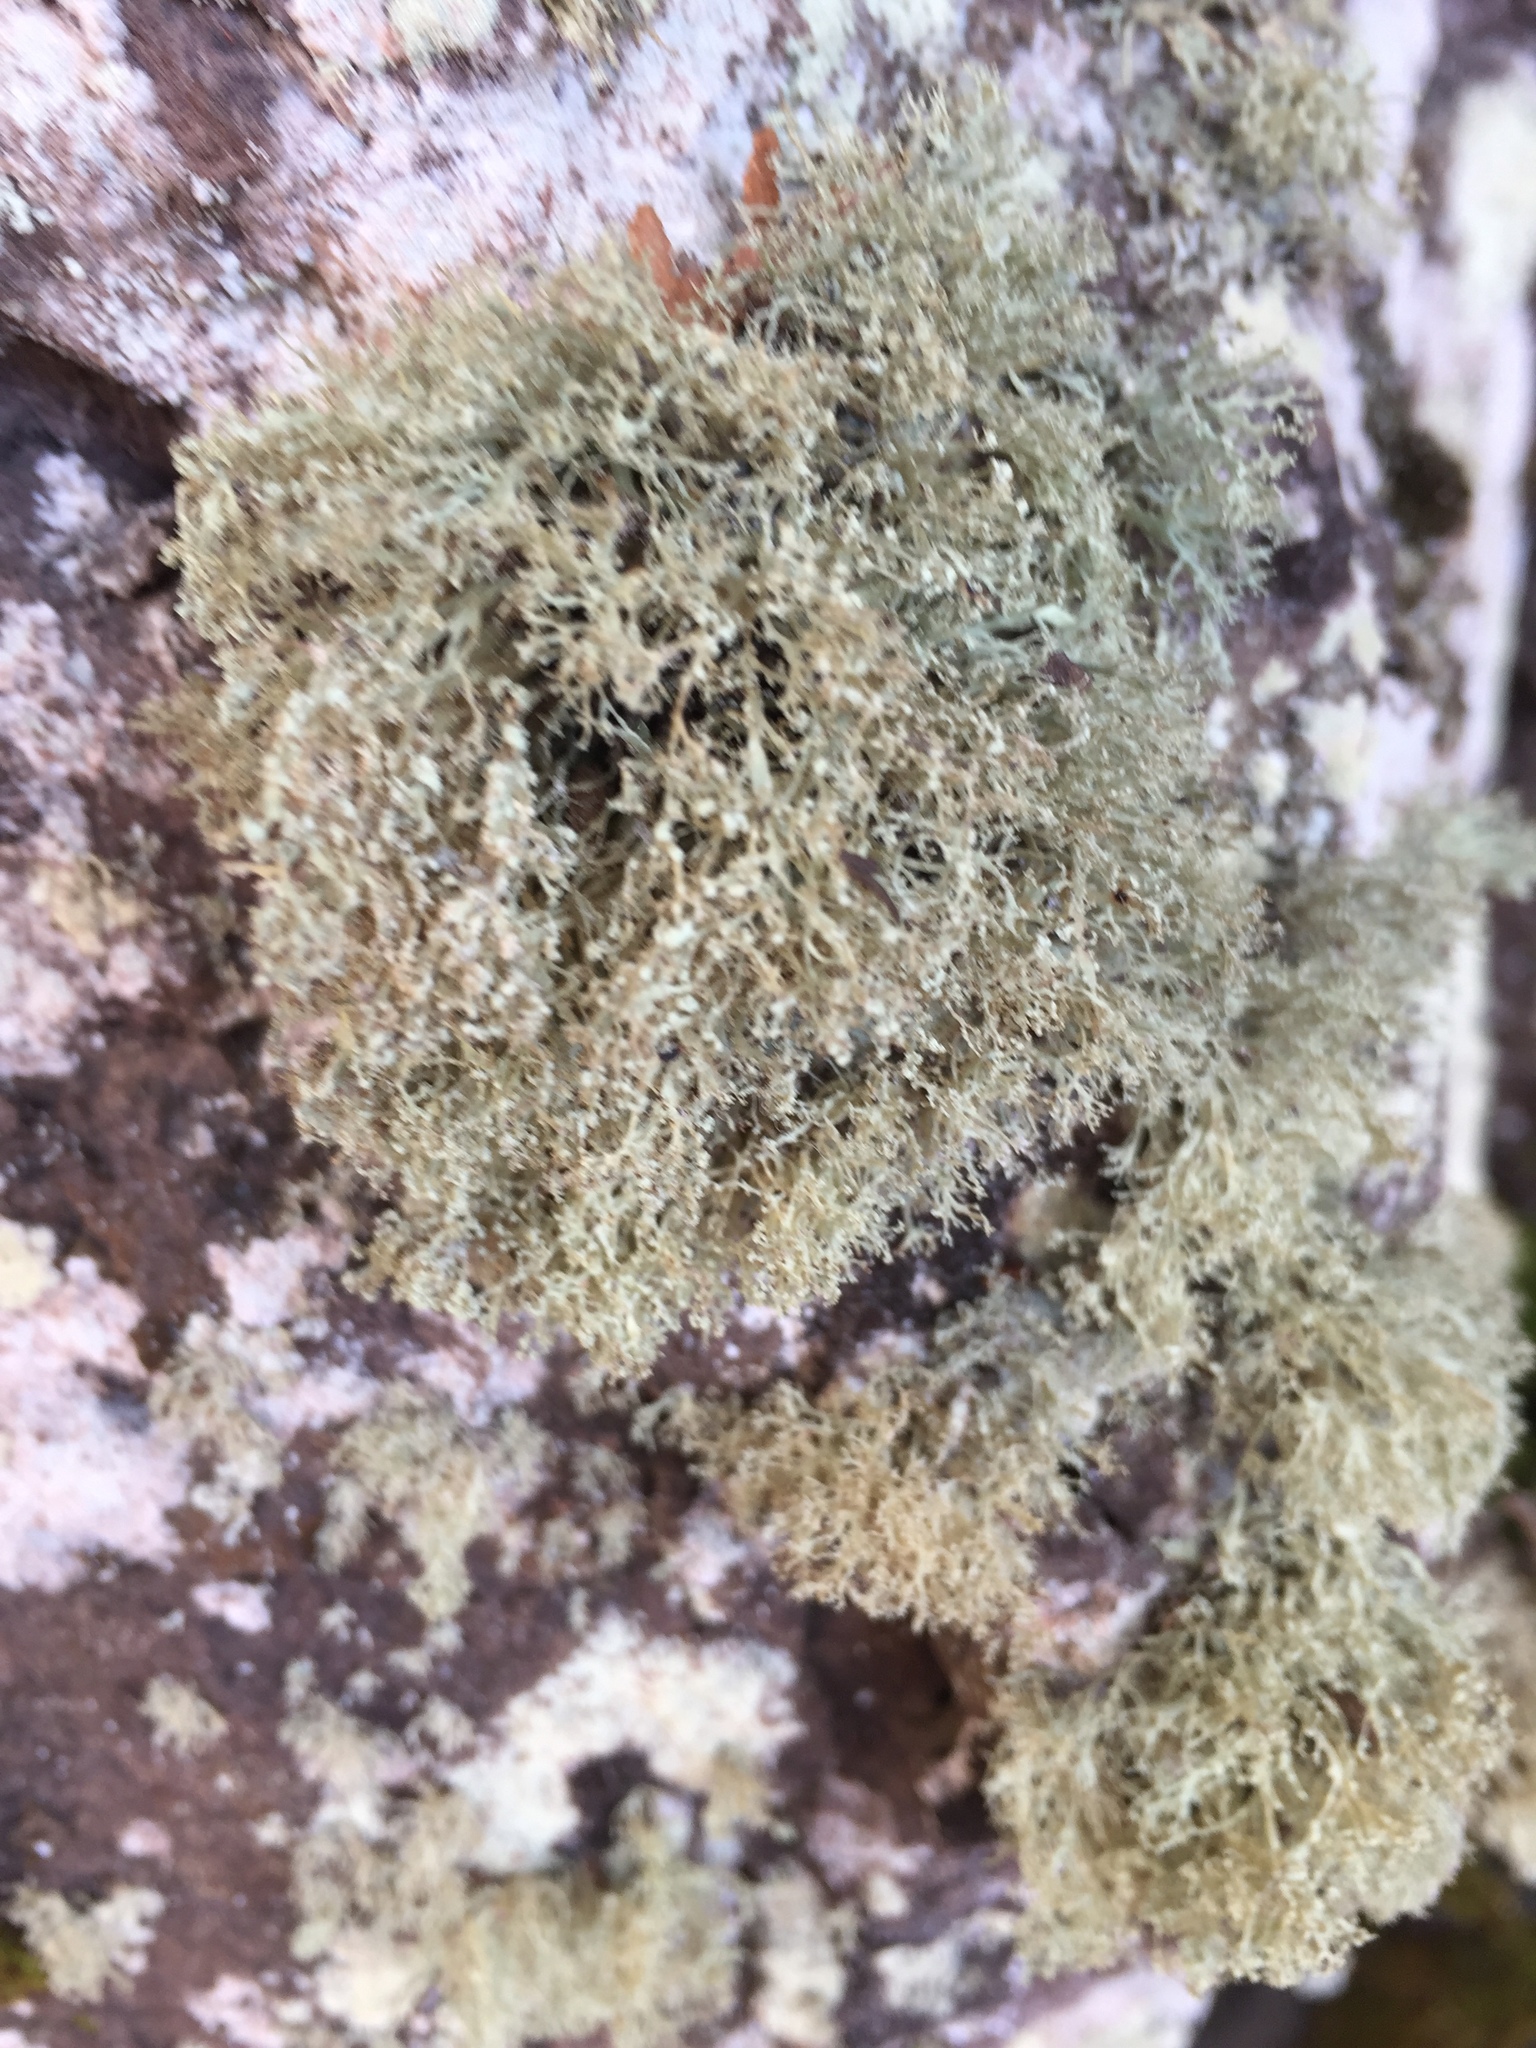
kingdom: Fungi
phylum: Ascomycota
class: Lecanoromycetes
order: Lecanorales
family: Ramalinaceae
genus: Ramalina
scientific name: Ramalina intermedia
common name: Rock bushy lichen
